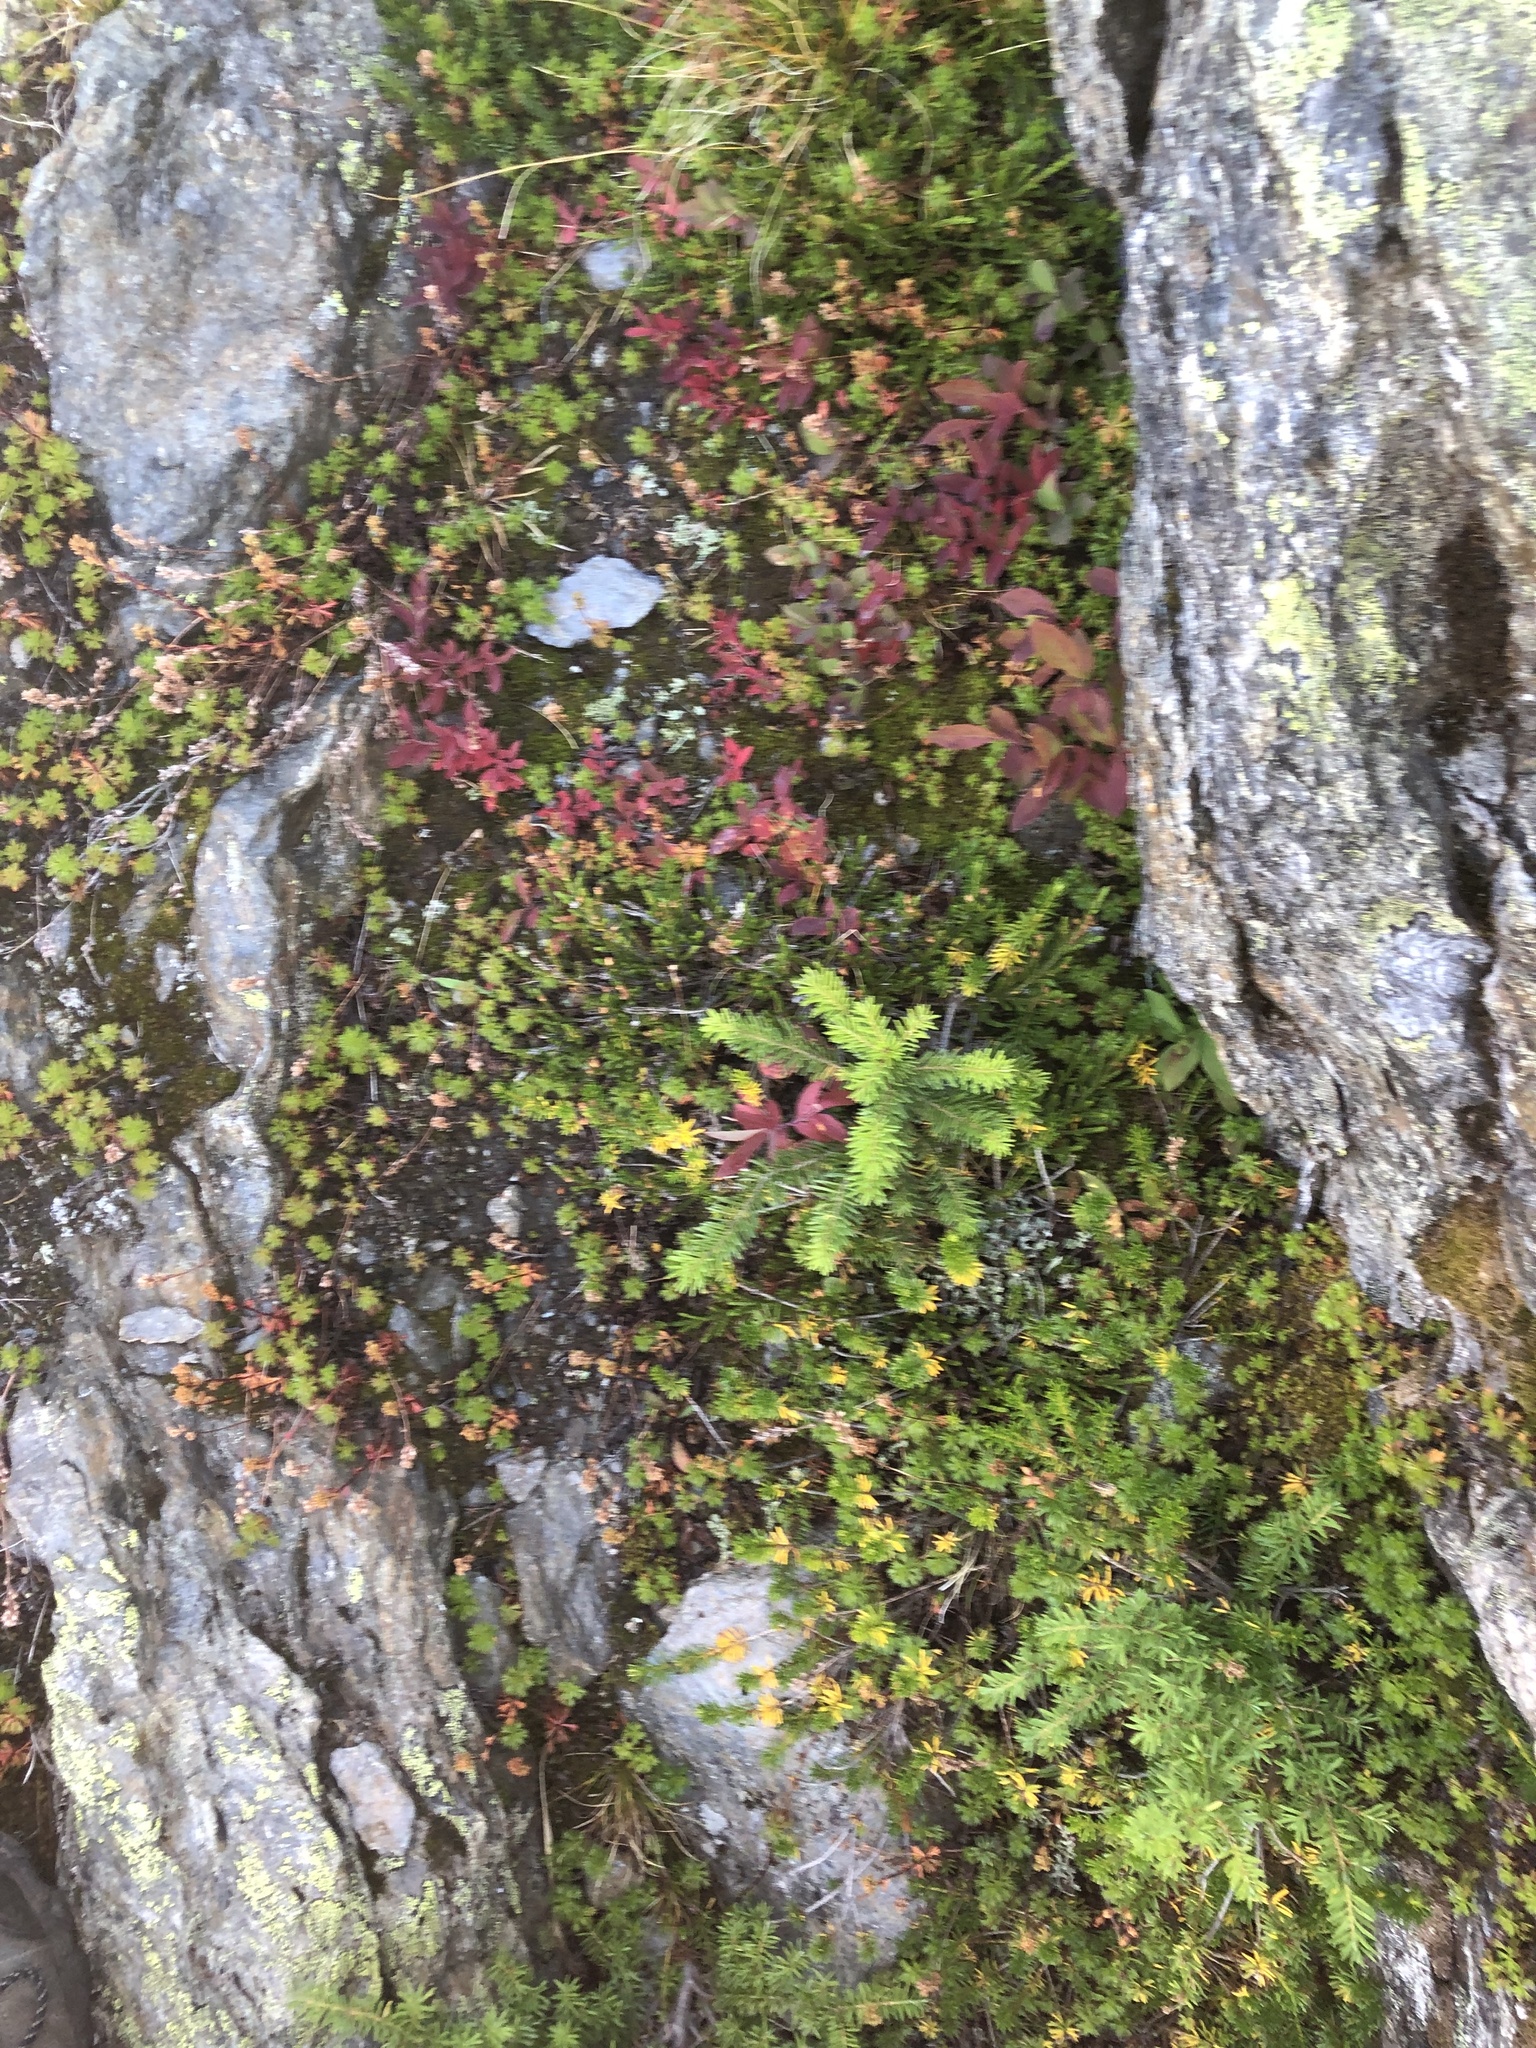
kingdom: Plantae
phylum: Tracheophyta
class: Pinopsida
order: Pinales
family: Pinaceae
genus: Abies
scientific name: Abies lasiocarpa
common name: Subalpine fir
